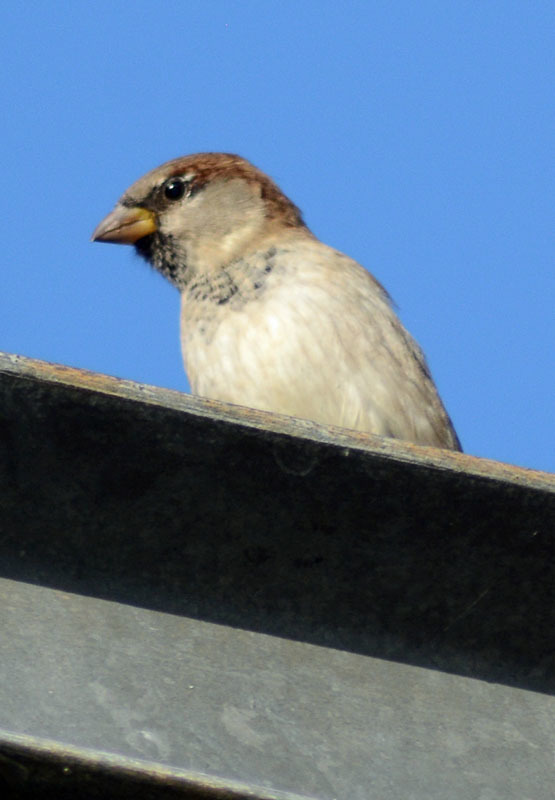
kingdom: Animalia
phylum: Chordata
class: Aves
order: Passeriformes
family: Passeridae
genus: Passer
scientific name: Passer domesticus
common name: House sparrow
